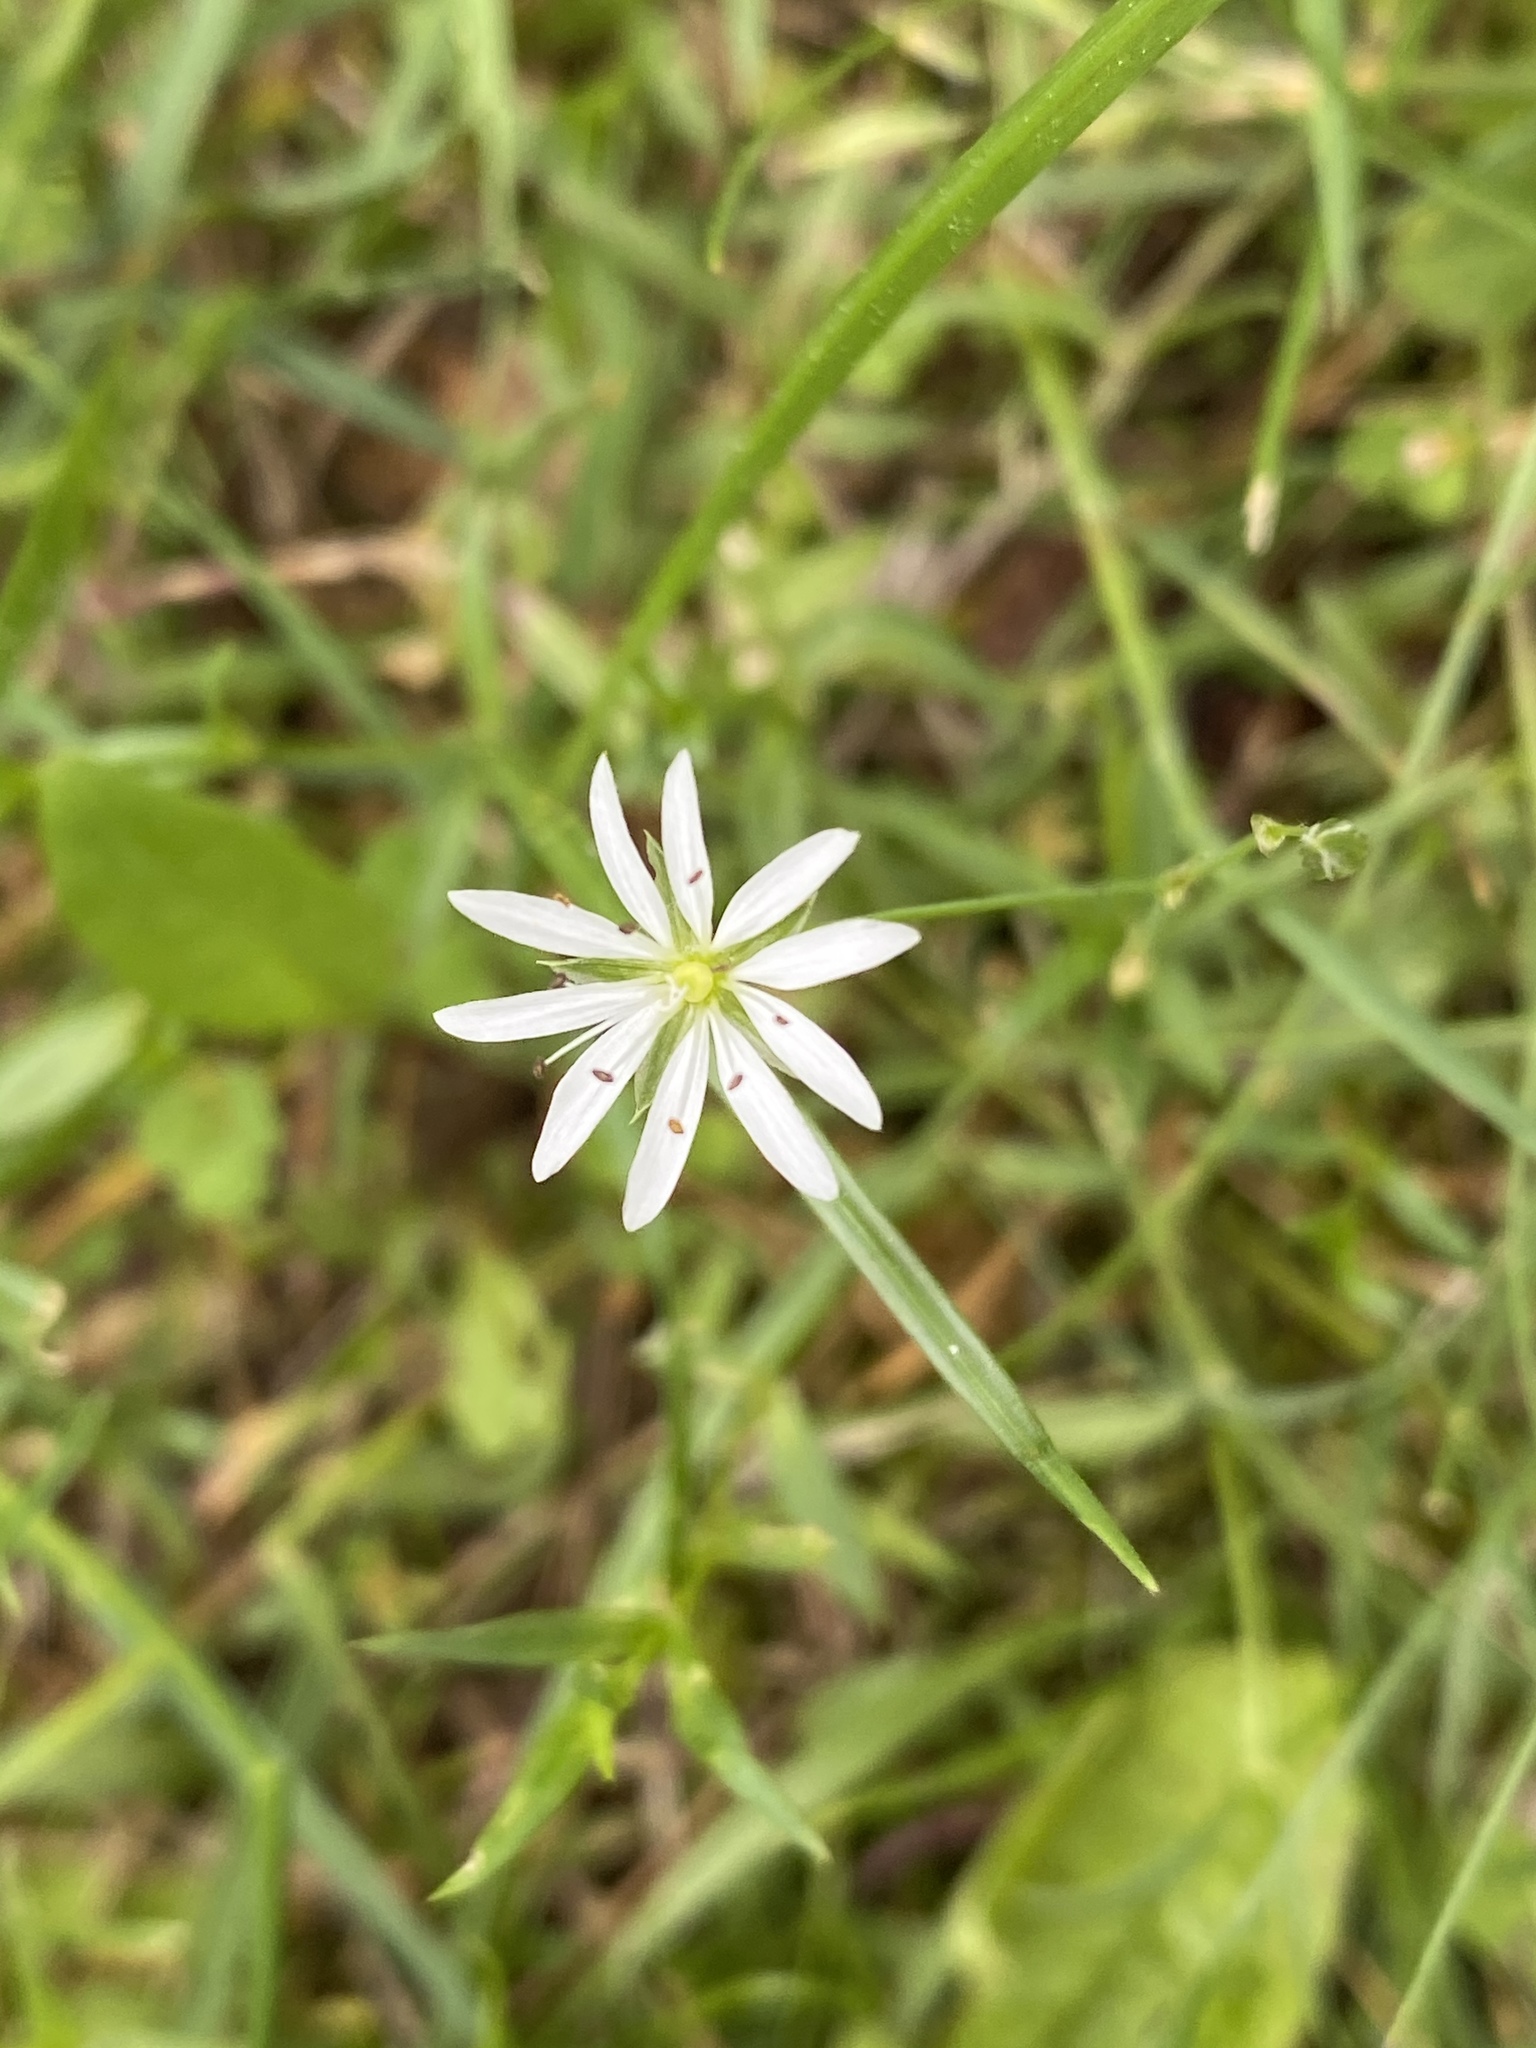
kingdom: Plantae
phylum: Tracheophyta
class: Magnoliopsida
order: Caryophyllales
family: Caryophyllaceae
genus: Stellaria
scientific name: Stellaria graminea
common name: Grass-like starwort
